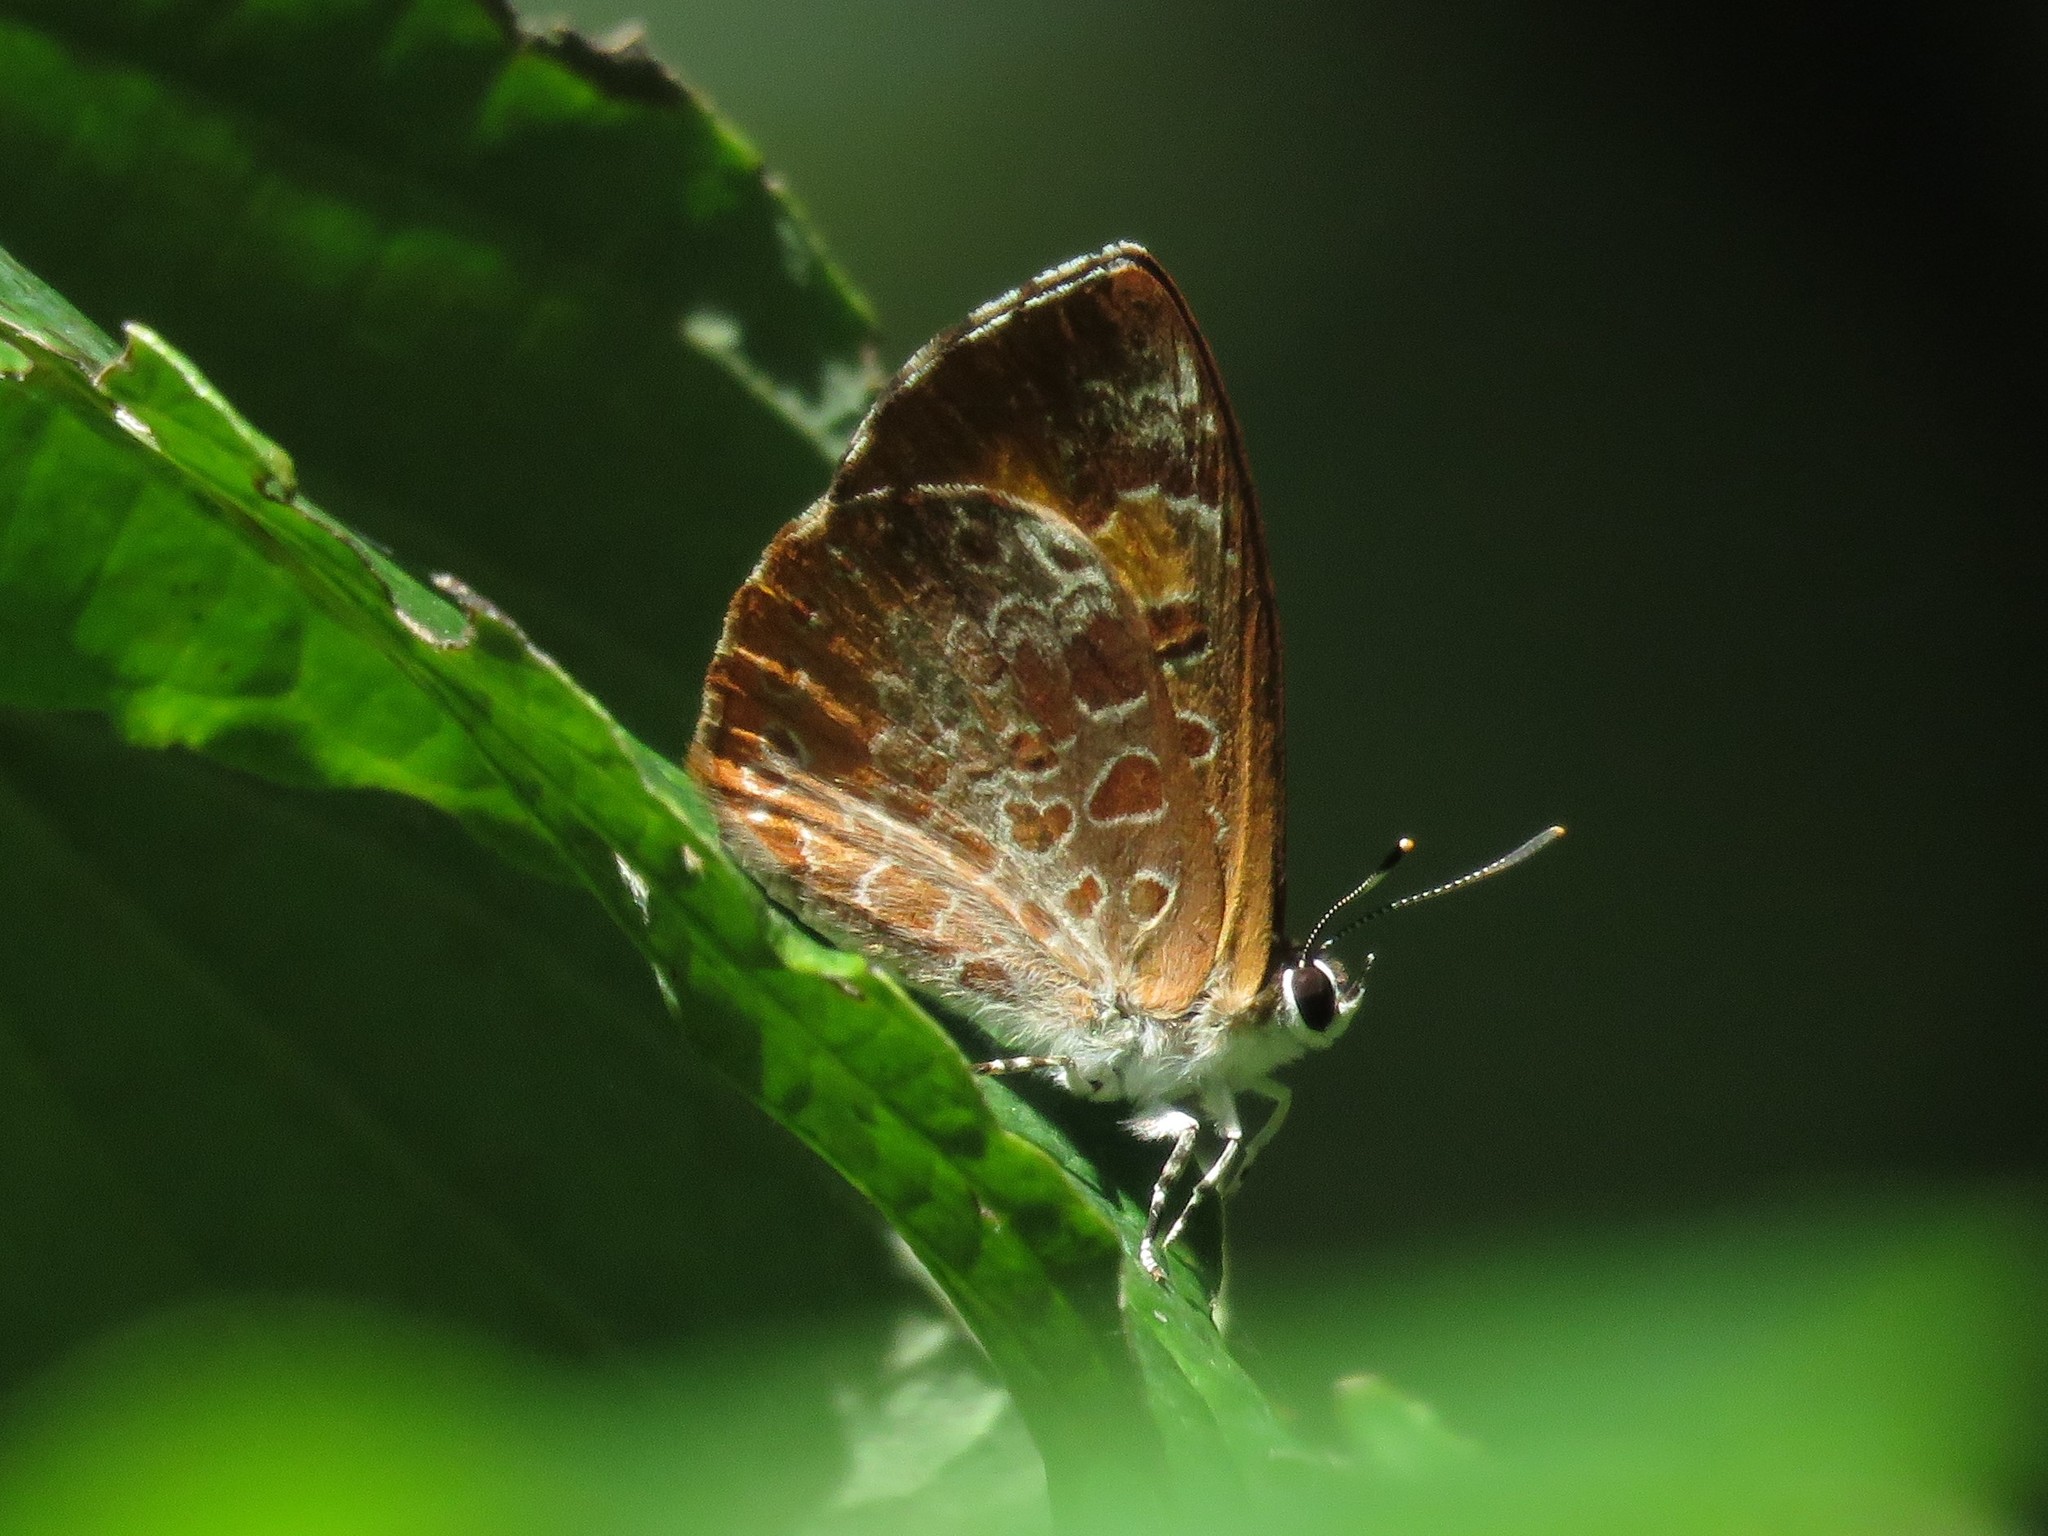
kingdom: Animalia
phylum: Arthropoda
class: Insecta
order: Lepidoptera
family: Lycaenidae
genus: Feniseca
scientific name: Feniseca tarquinius
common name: Harvester
